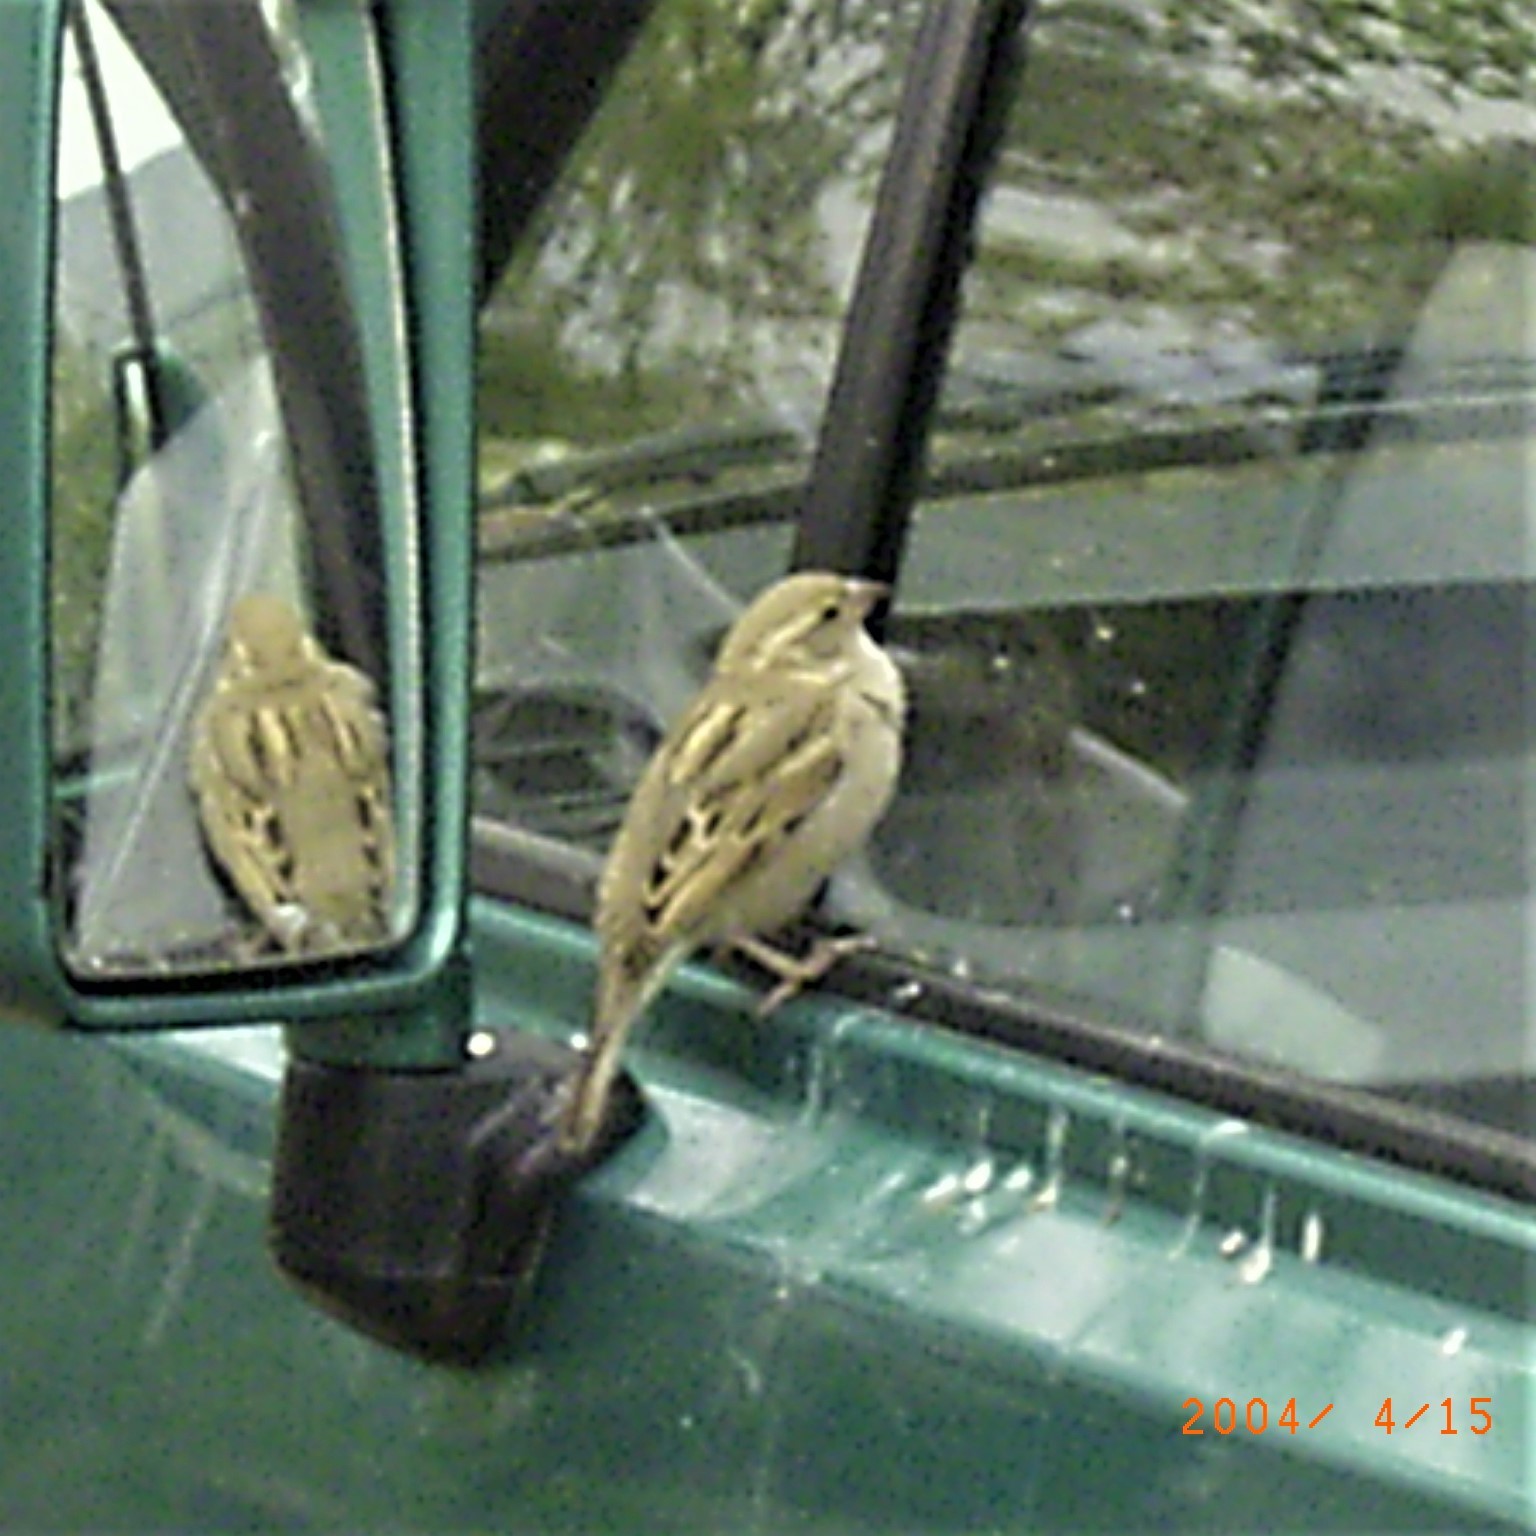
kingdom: Animalia
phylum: Chordata
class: Aves
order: Passeriformes
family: Passeridae
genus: Passer
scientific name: Passer domesticus
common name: House sparrow
